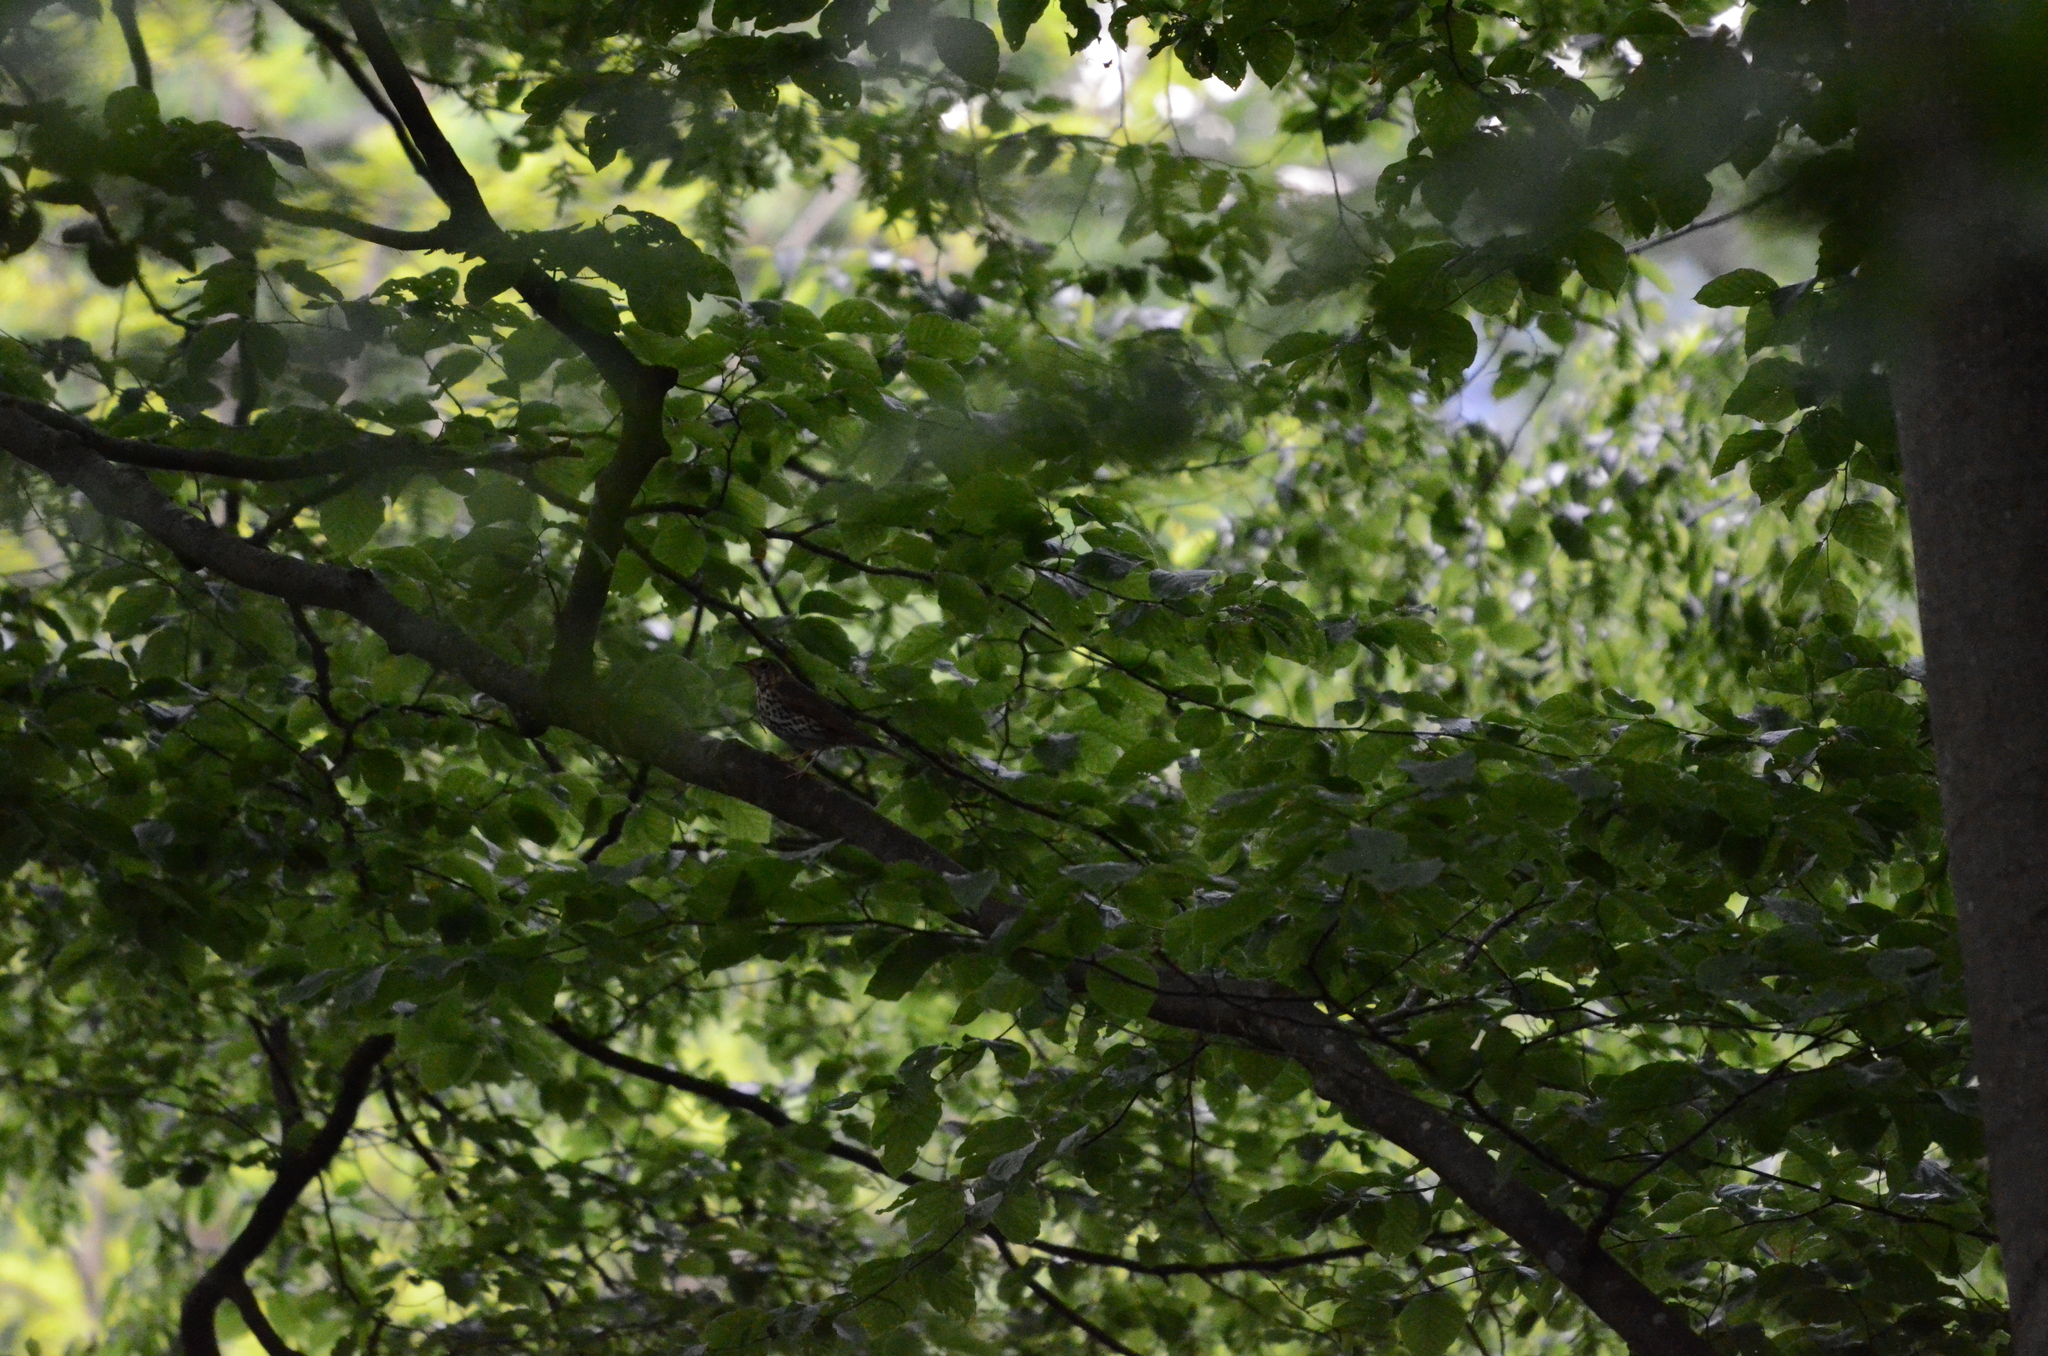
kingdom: Animalia
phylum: Chordata
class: Aves
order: Passeriformes
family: Turdidae
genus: Turdus
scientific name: Turdus philomelos
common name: Song thrush
